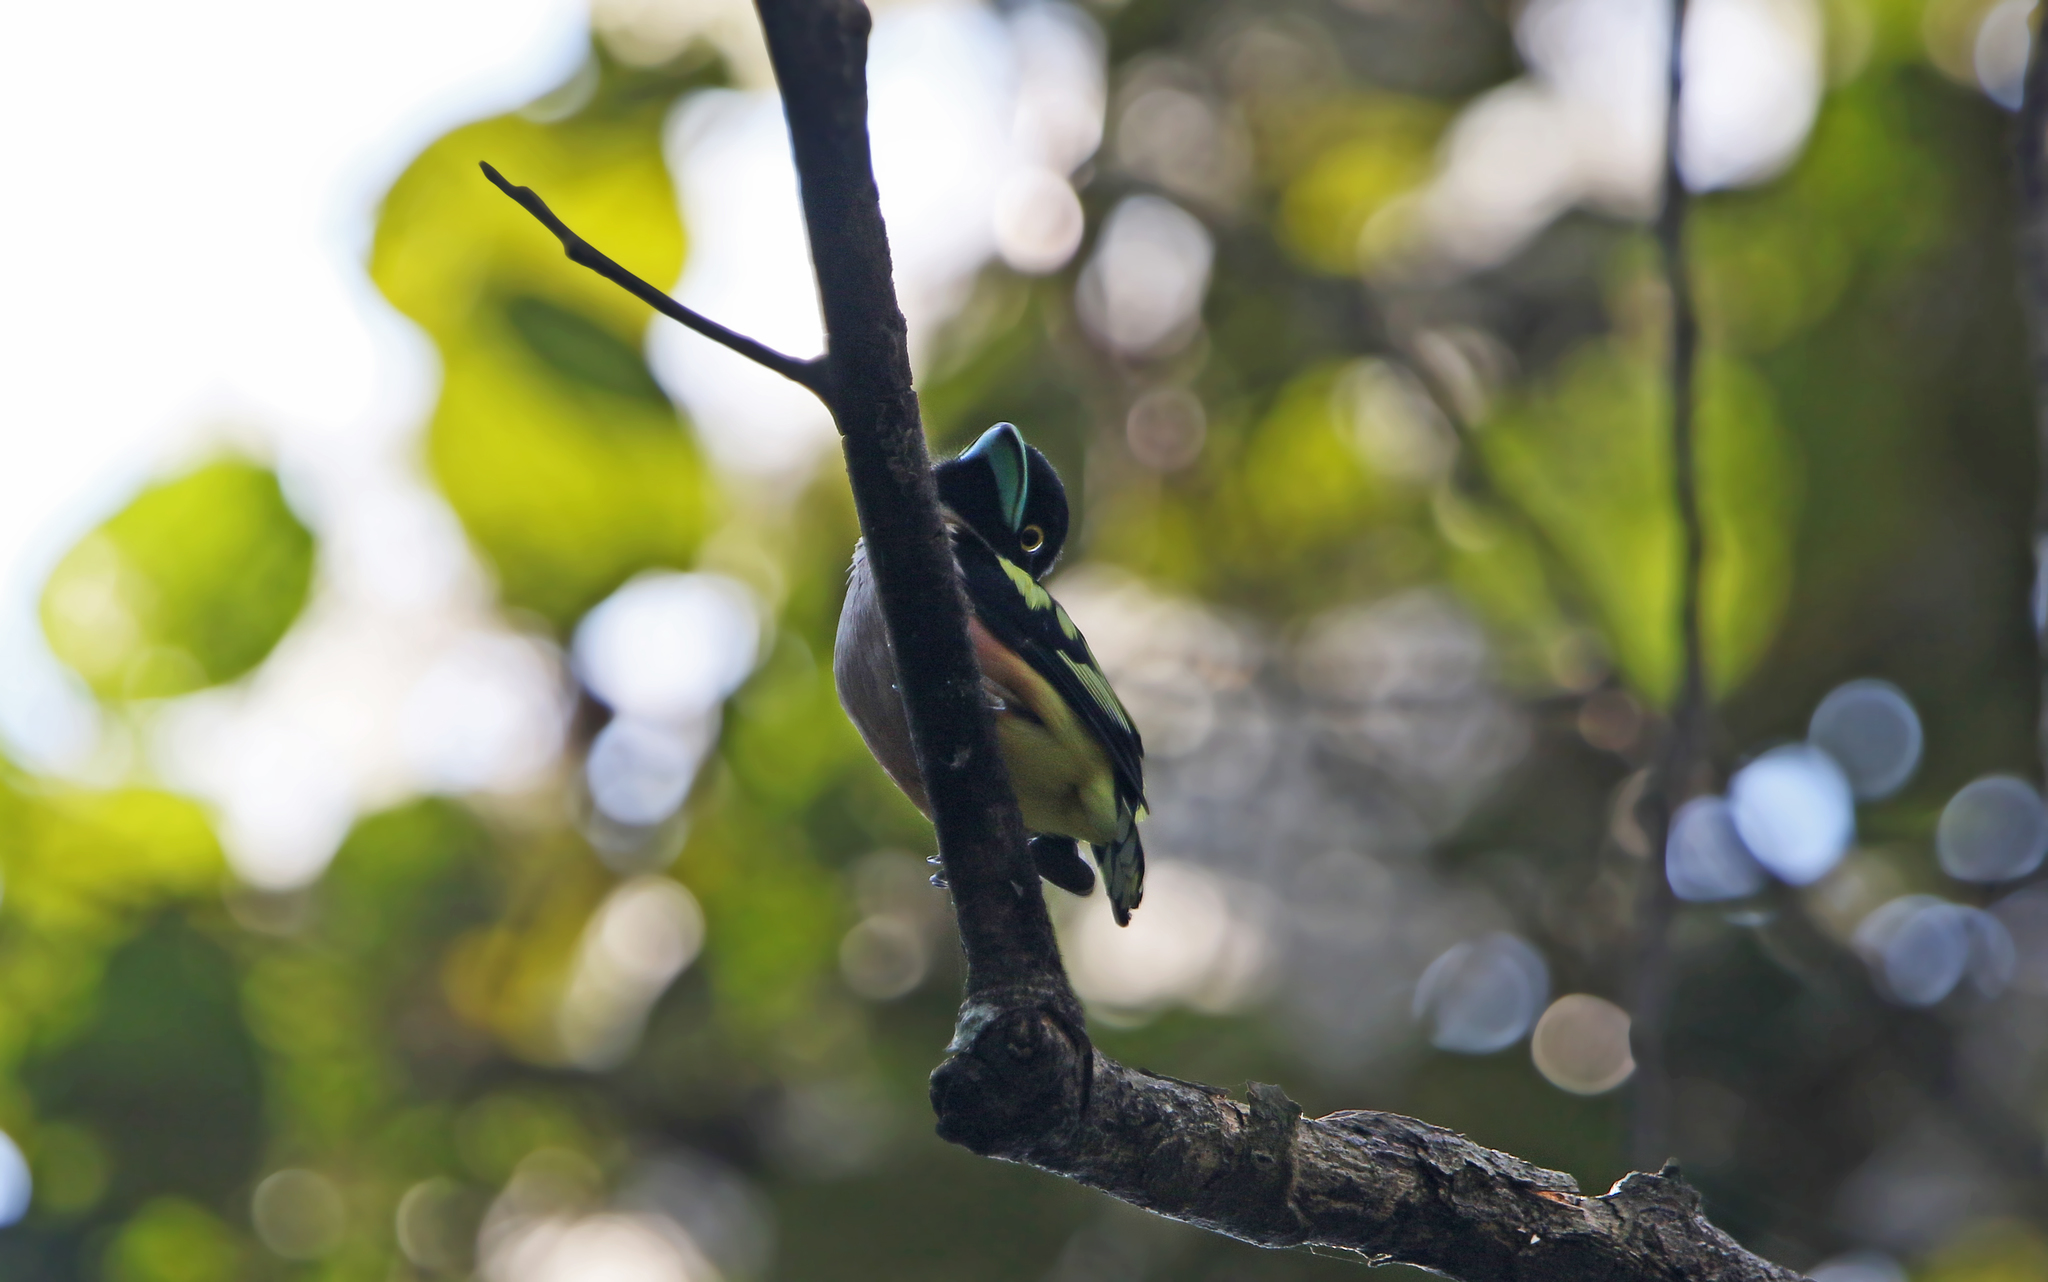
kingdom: Animalia
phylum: Chordata
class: Aves
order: Passeriformes
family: Eurylaimidae
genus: Eurylaimus
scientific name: Eurylaimus ochromalus
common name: Black-and-yellow broadbill
